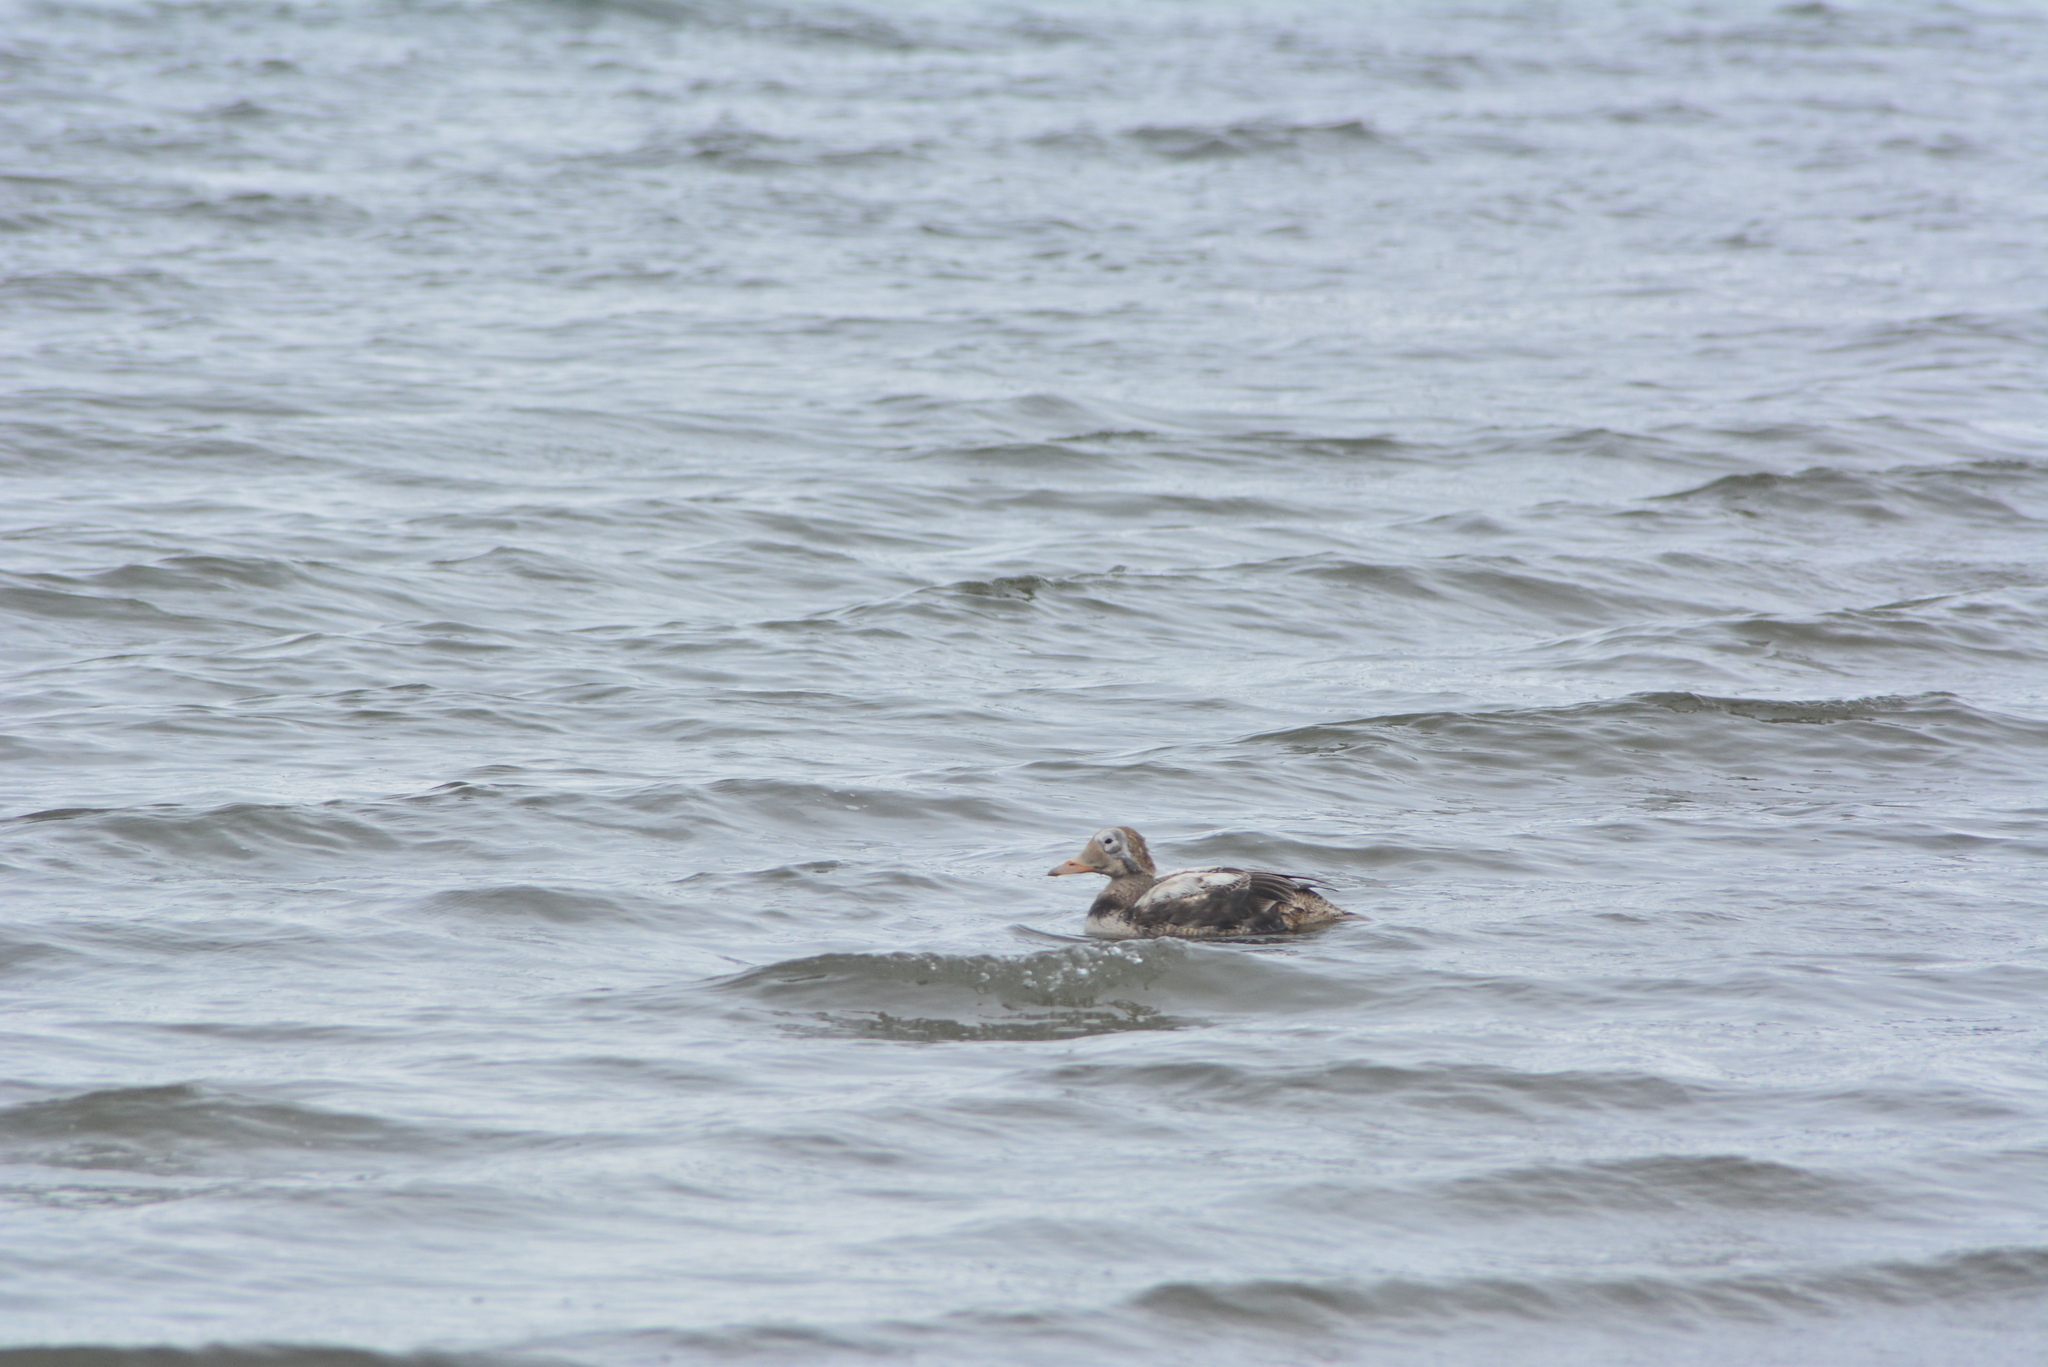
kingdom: Animalia
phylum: Chordata
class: Aves
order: Anseriformes
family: Anatidae
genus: Somateria
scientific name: Somateria fischeri
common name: Spectacled eider
